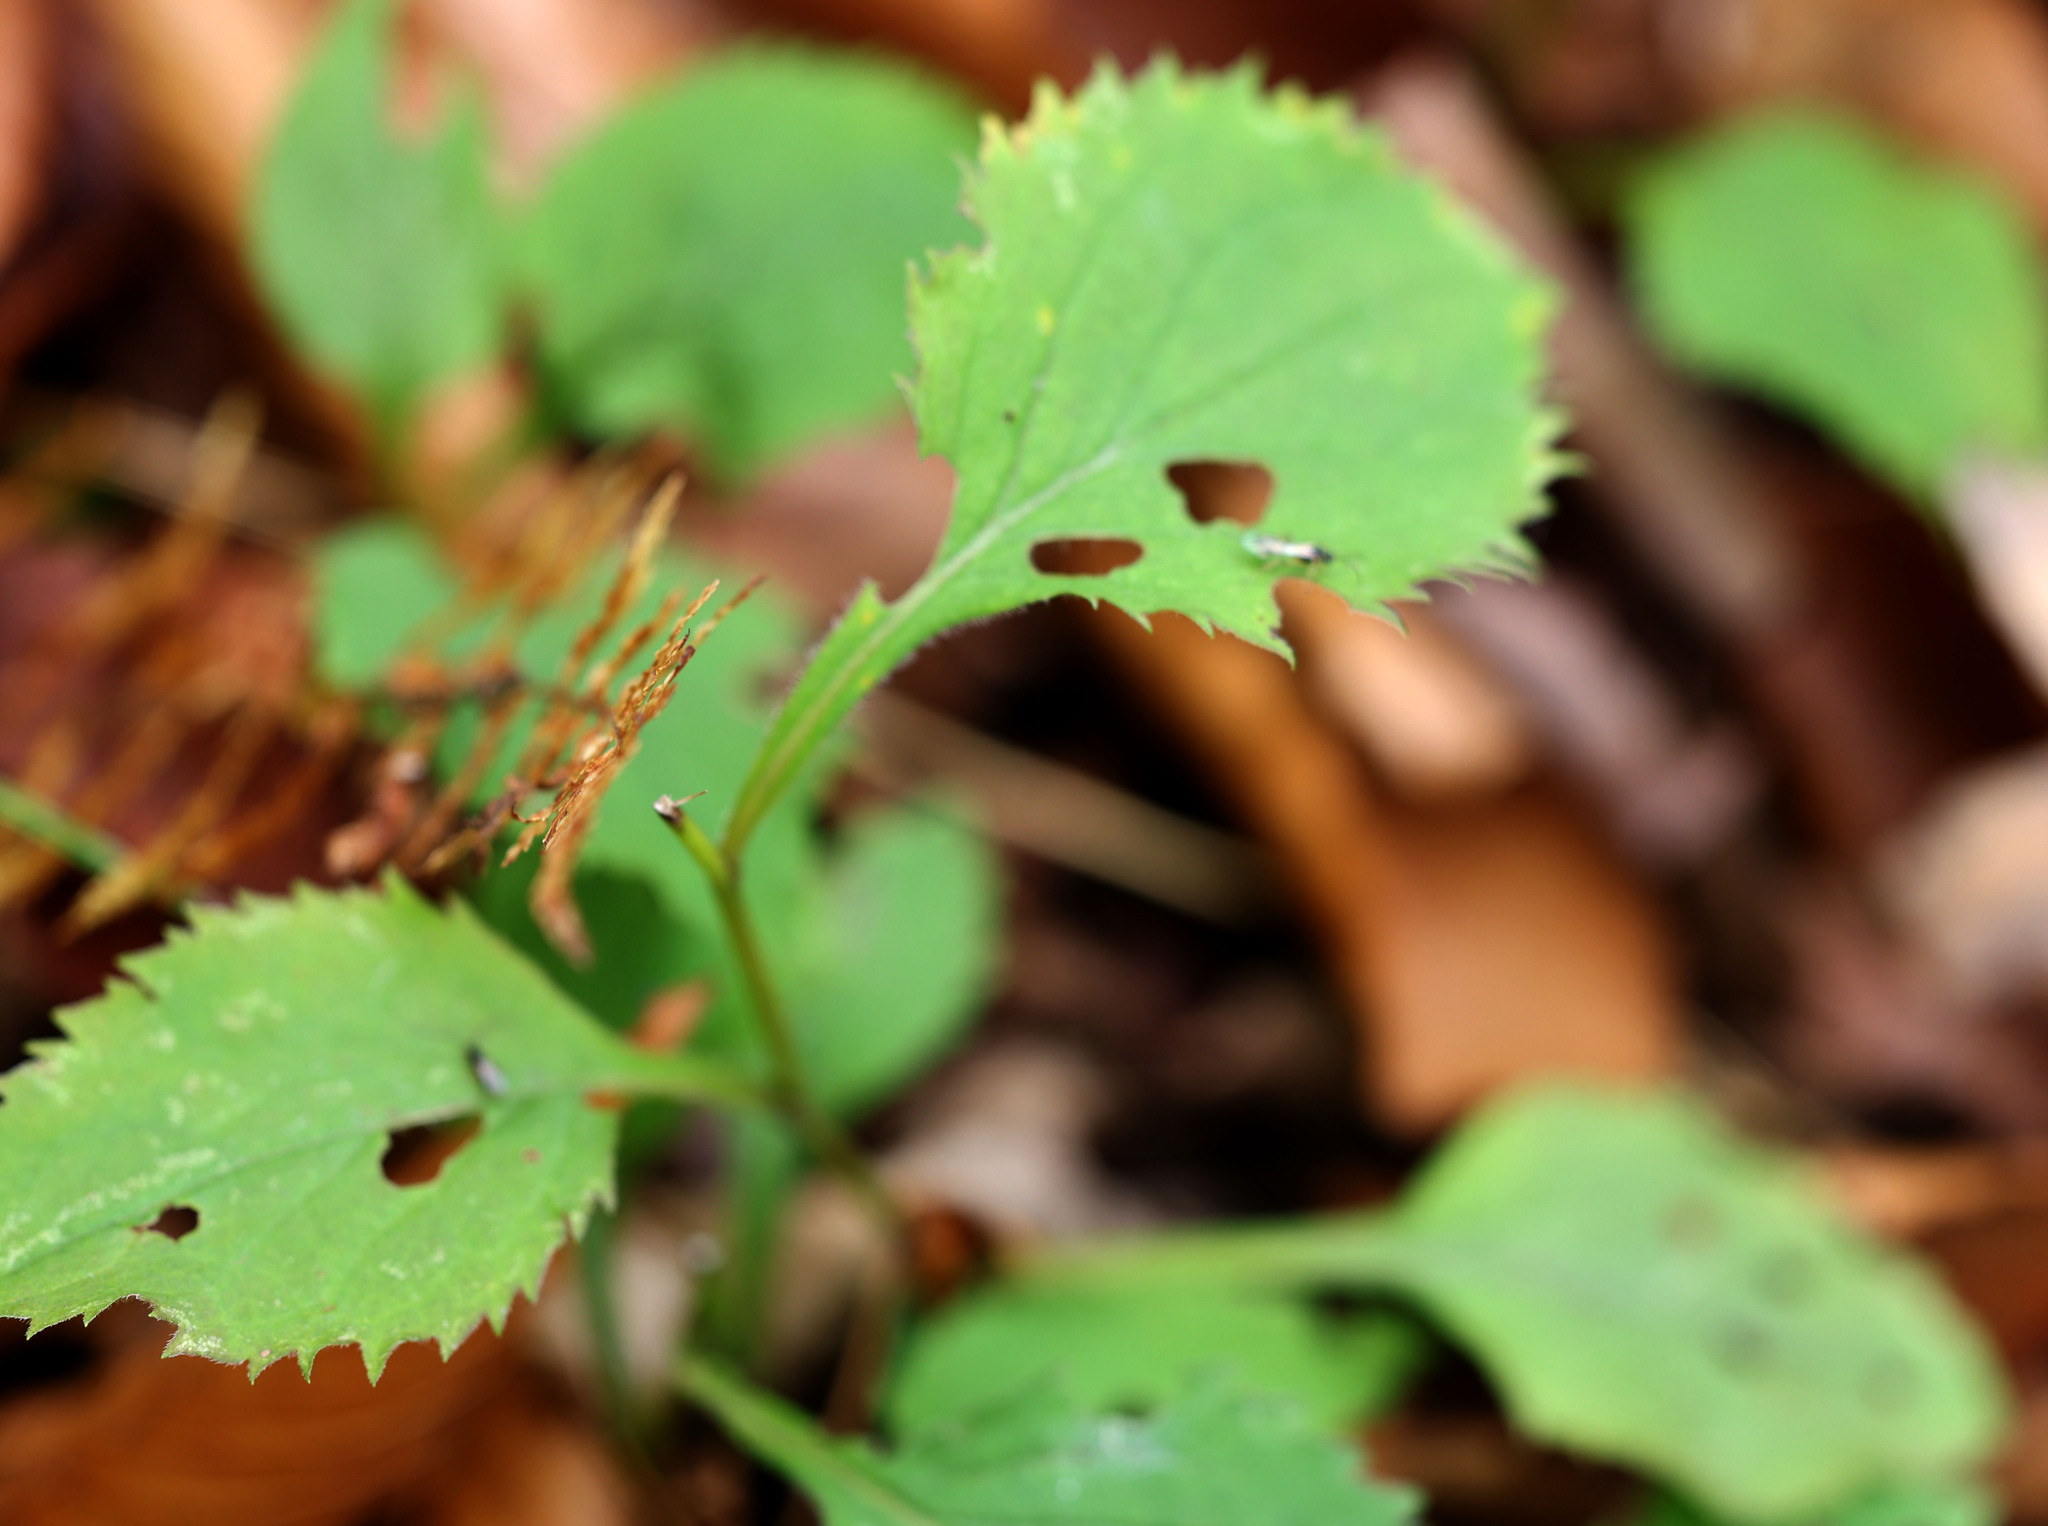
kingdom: Plantae
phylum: Tracheophyta
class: Magnoliopsida
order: Asterales
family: Asteraceae
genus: Solidago
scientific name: Solidago flexicaulis
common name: Zig-zag goldenrod
